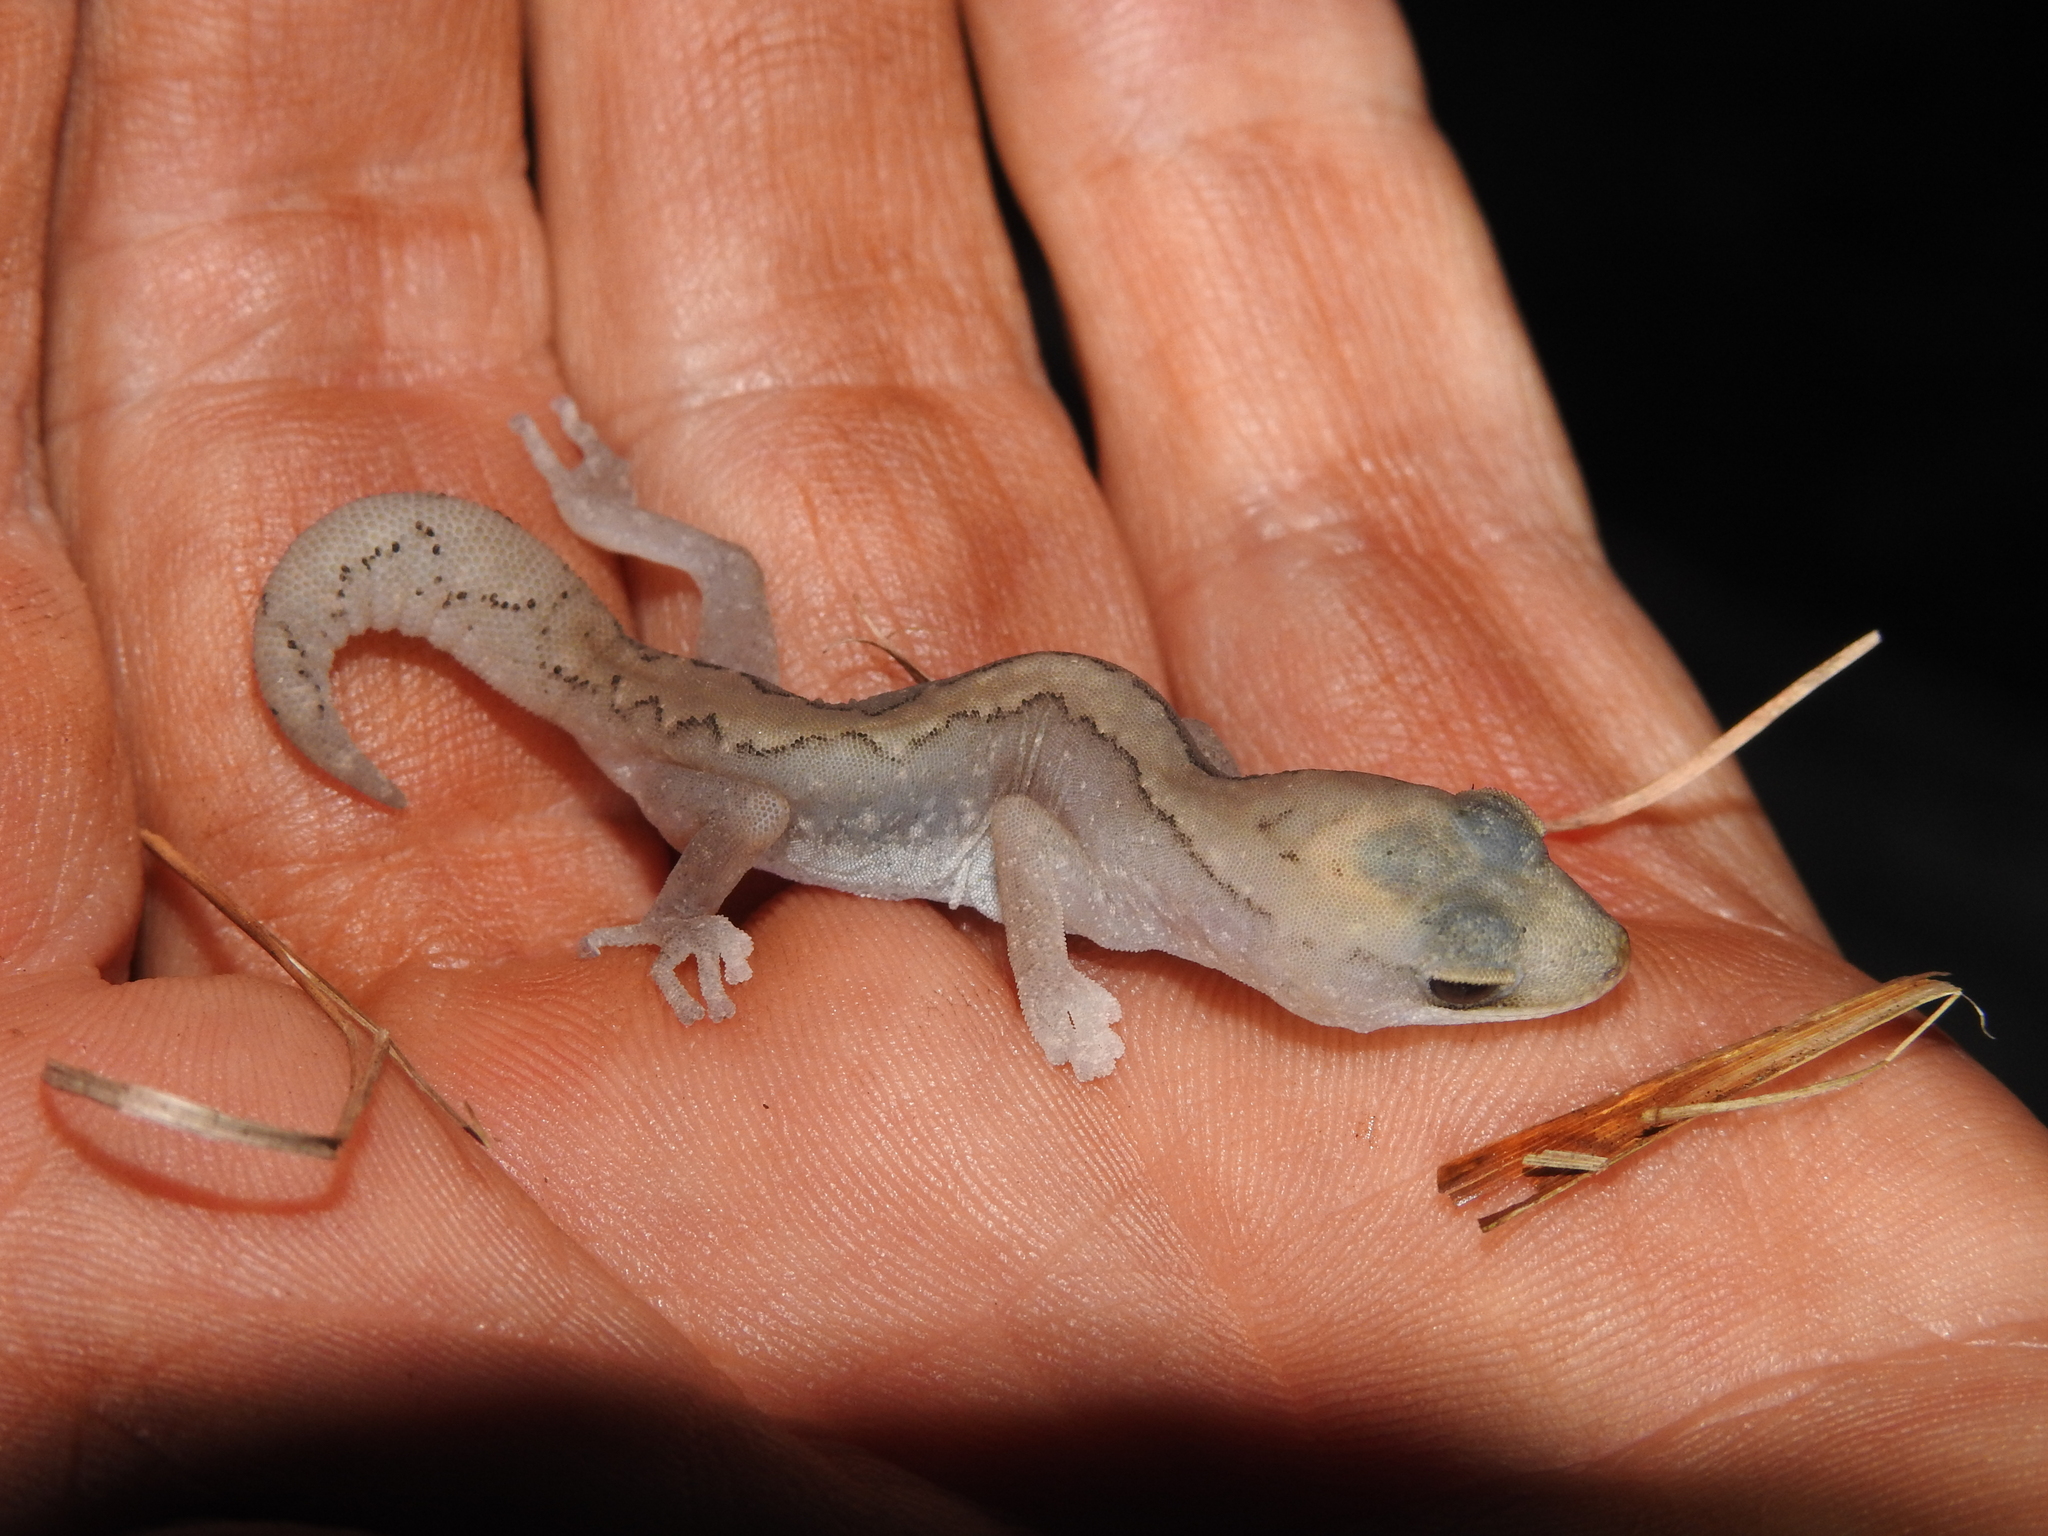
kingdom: Animalia
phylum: Chordata
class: Squamata
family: Diplodactylidae
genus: Diplodactylus
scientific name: Diplodactylus vittatus
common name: Eastern stone gecko
